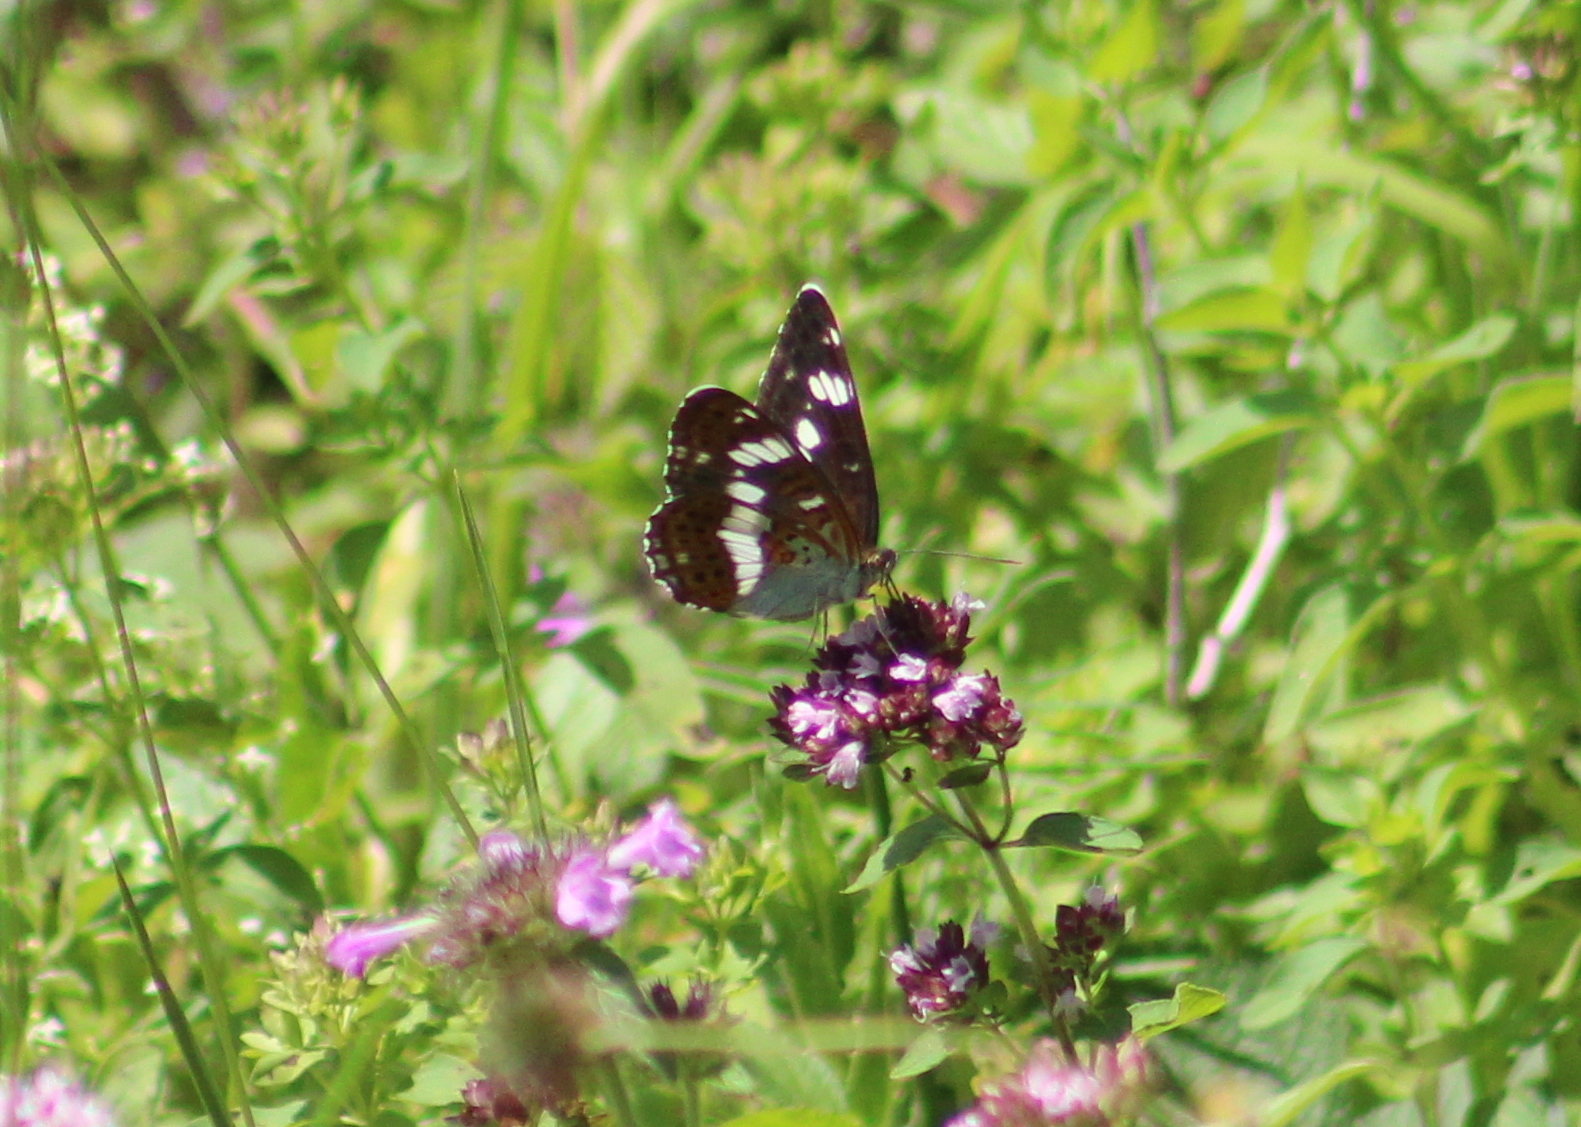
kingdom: Animalia
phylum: Arthropoda
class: Insecta
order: Lepidoptera
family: Nymphalidae
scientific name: Nymphalidae
